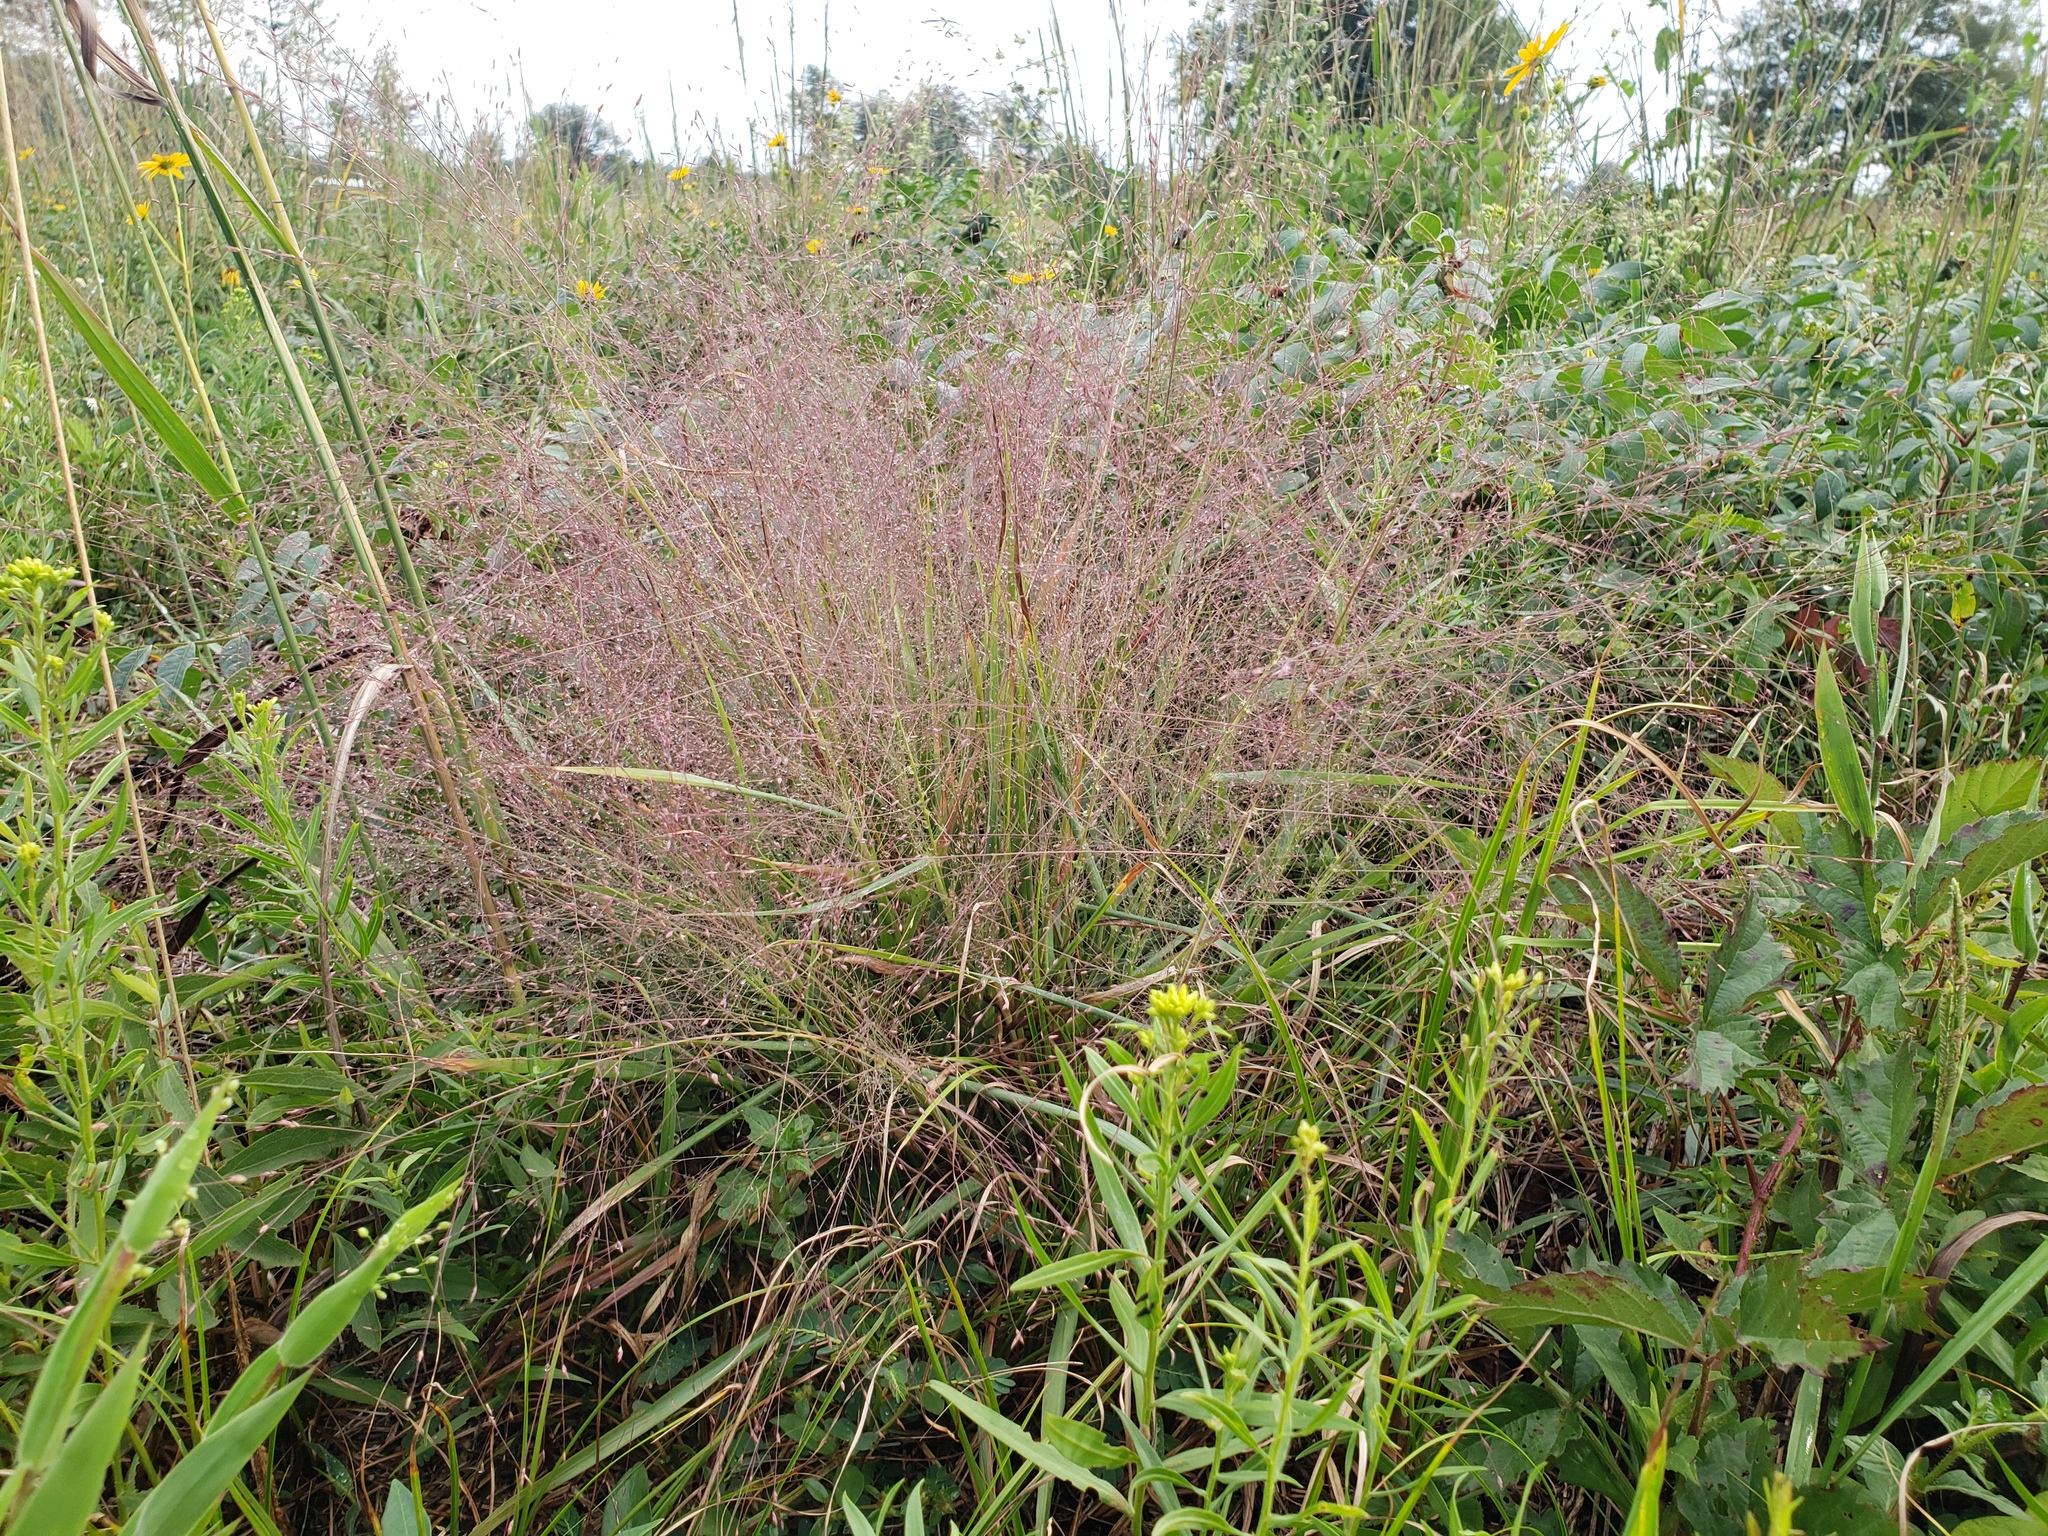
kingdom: Plantae
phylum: Tracheophyta
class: Liliopsida
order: Poales
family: Poaceae
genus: Eragrostis
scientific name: Eragrostis spectabilis
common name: Petticoat-climber
